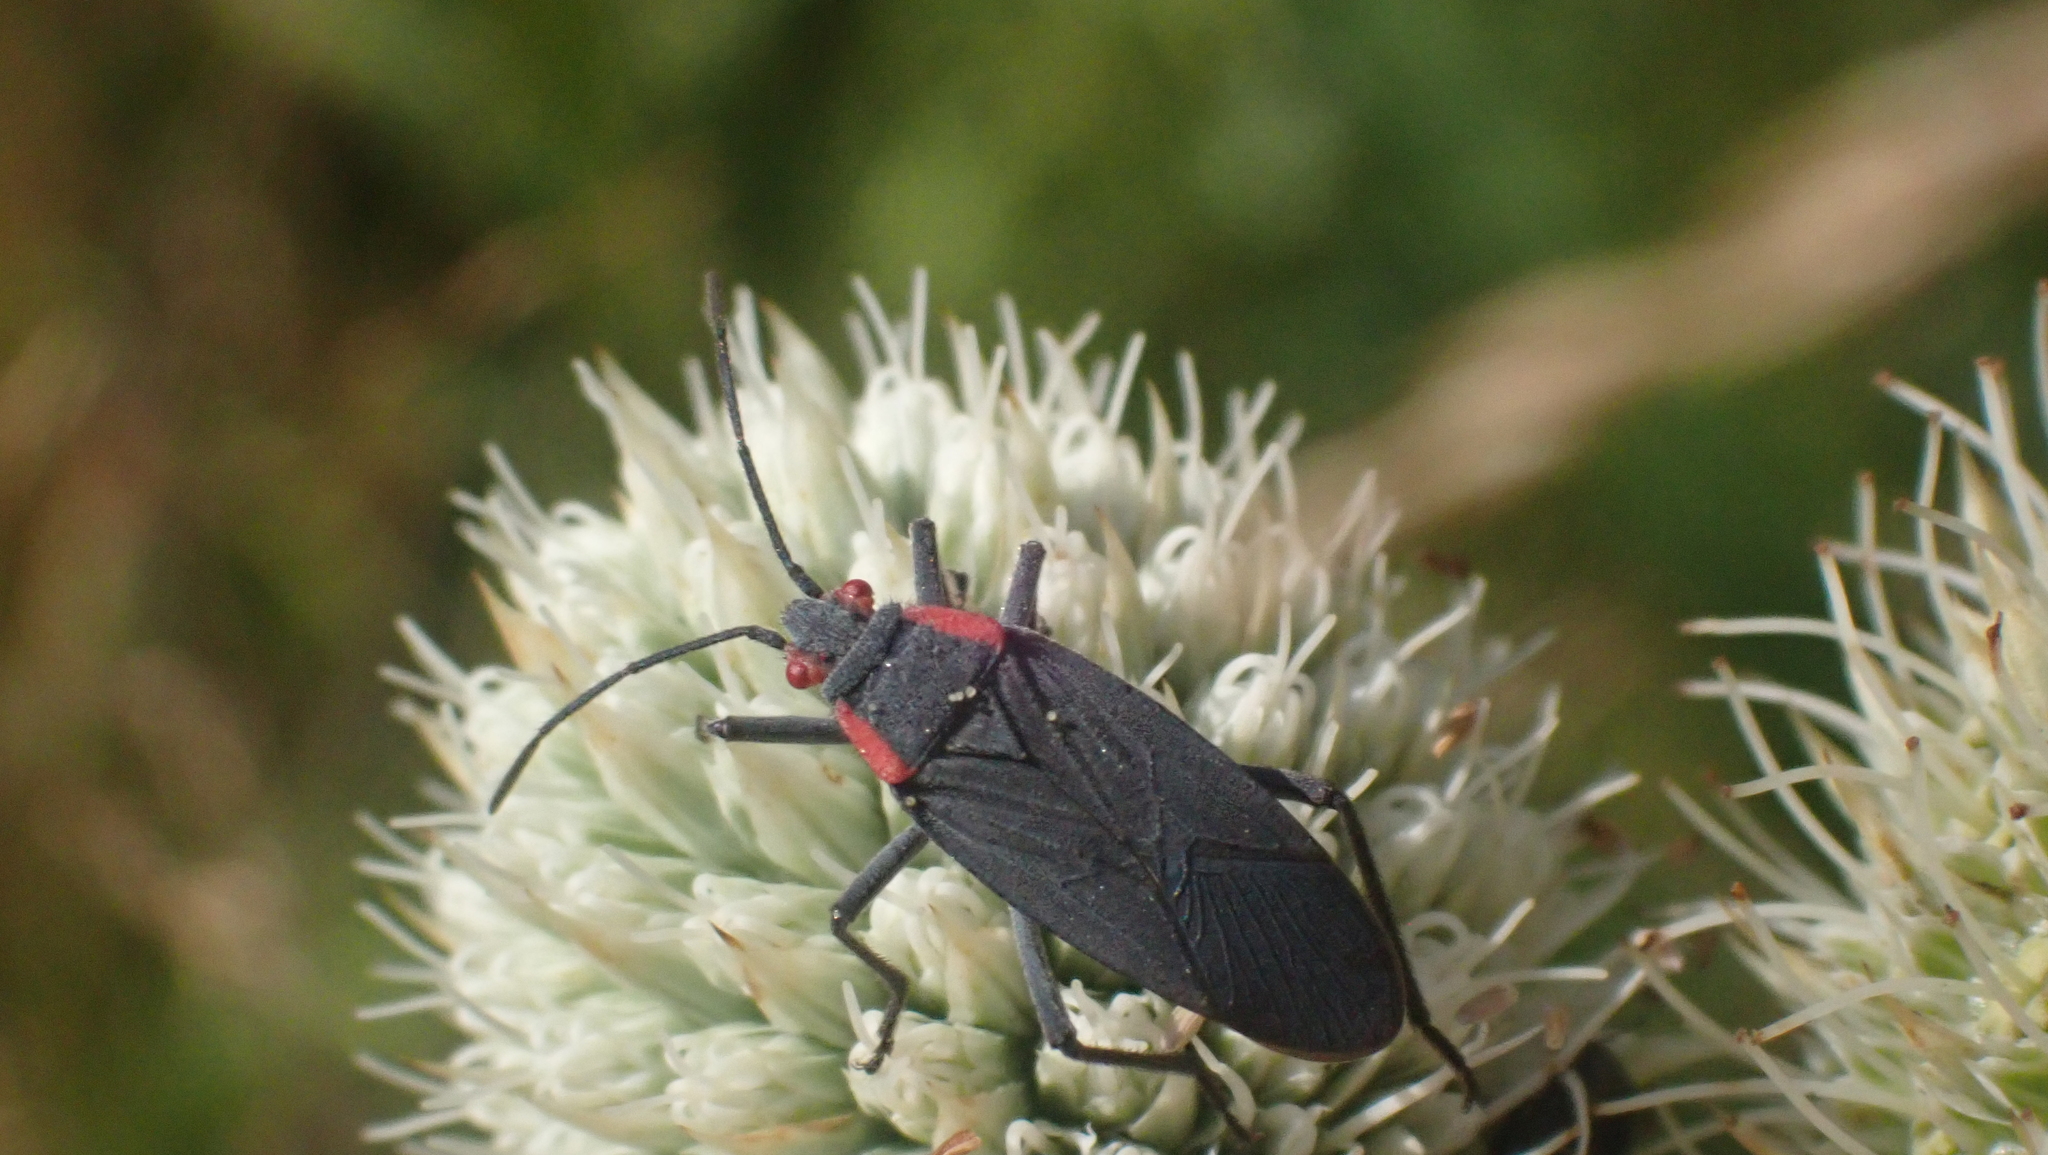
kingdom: Animalia
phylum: Arthropoda
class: Insecta
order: Hemiptera
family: Rhopalidae
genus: Jadera
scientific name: Jadera haematoloma
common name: Red-shouldered bug
